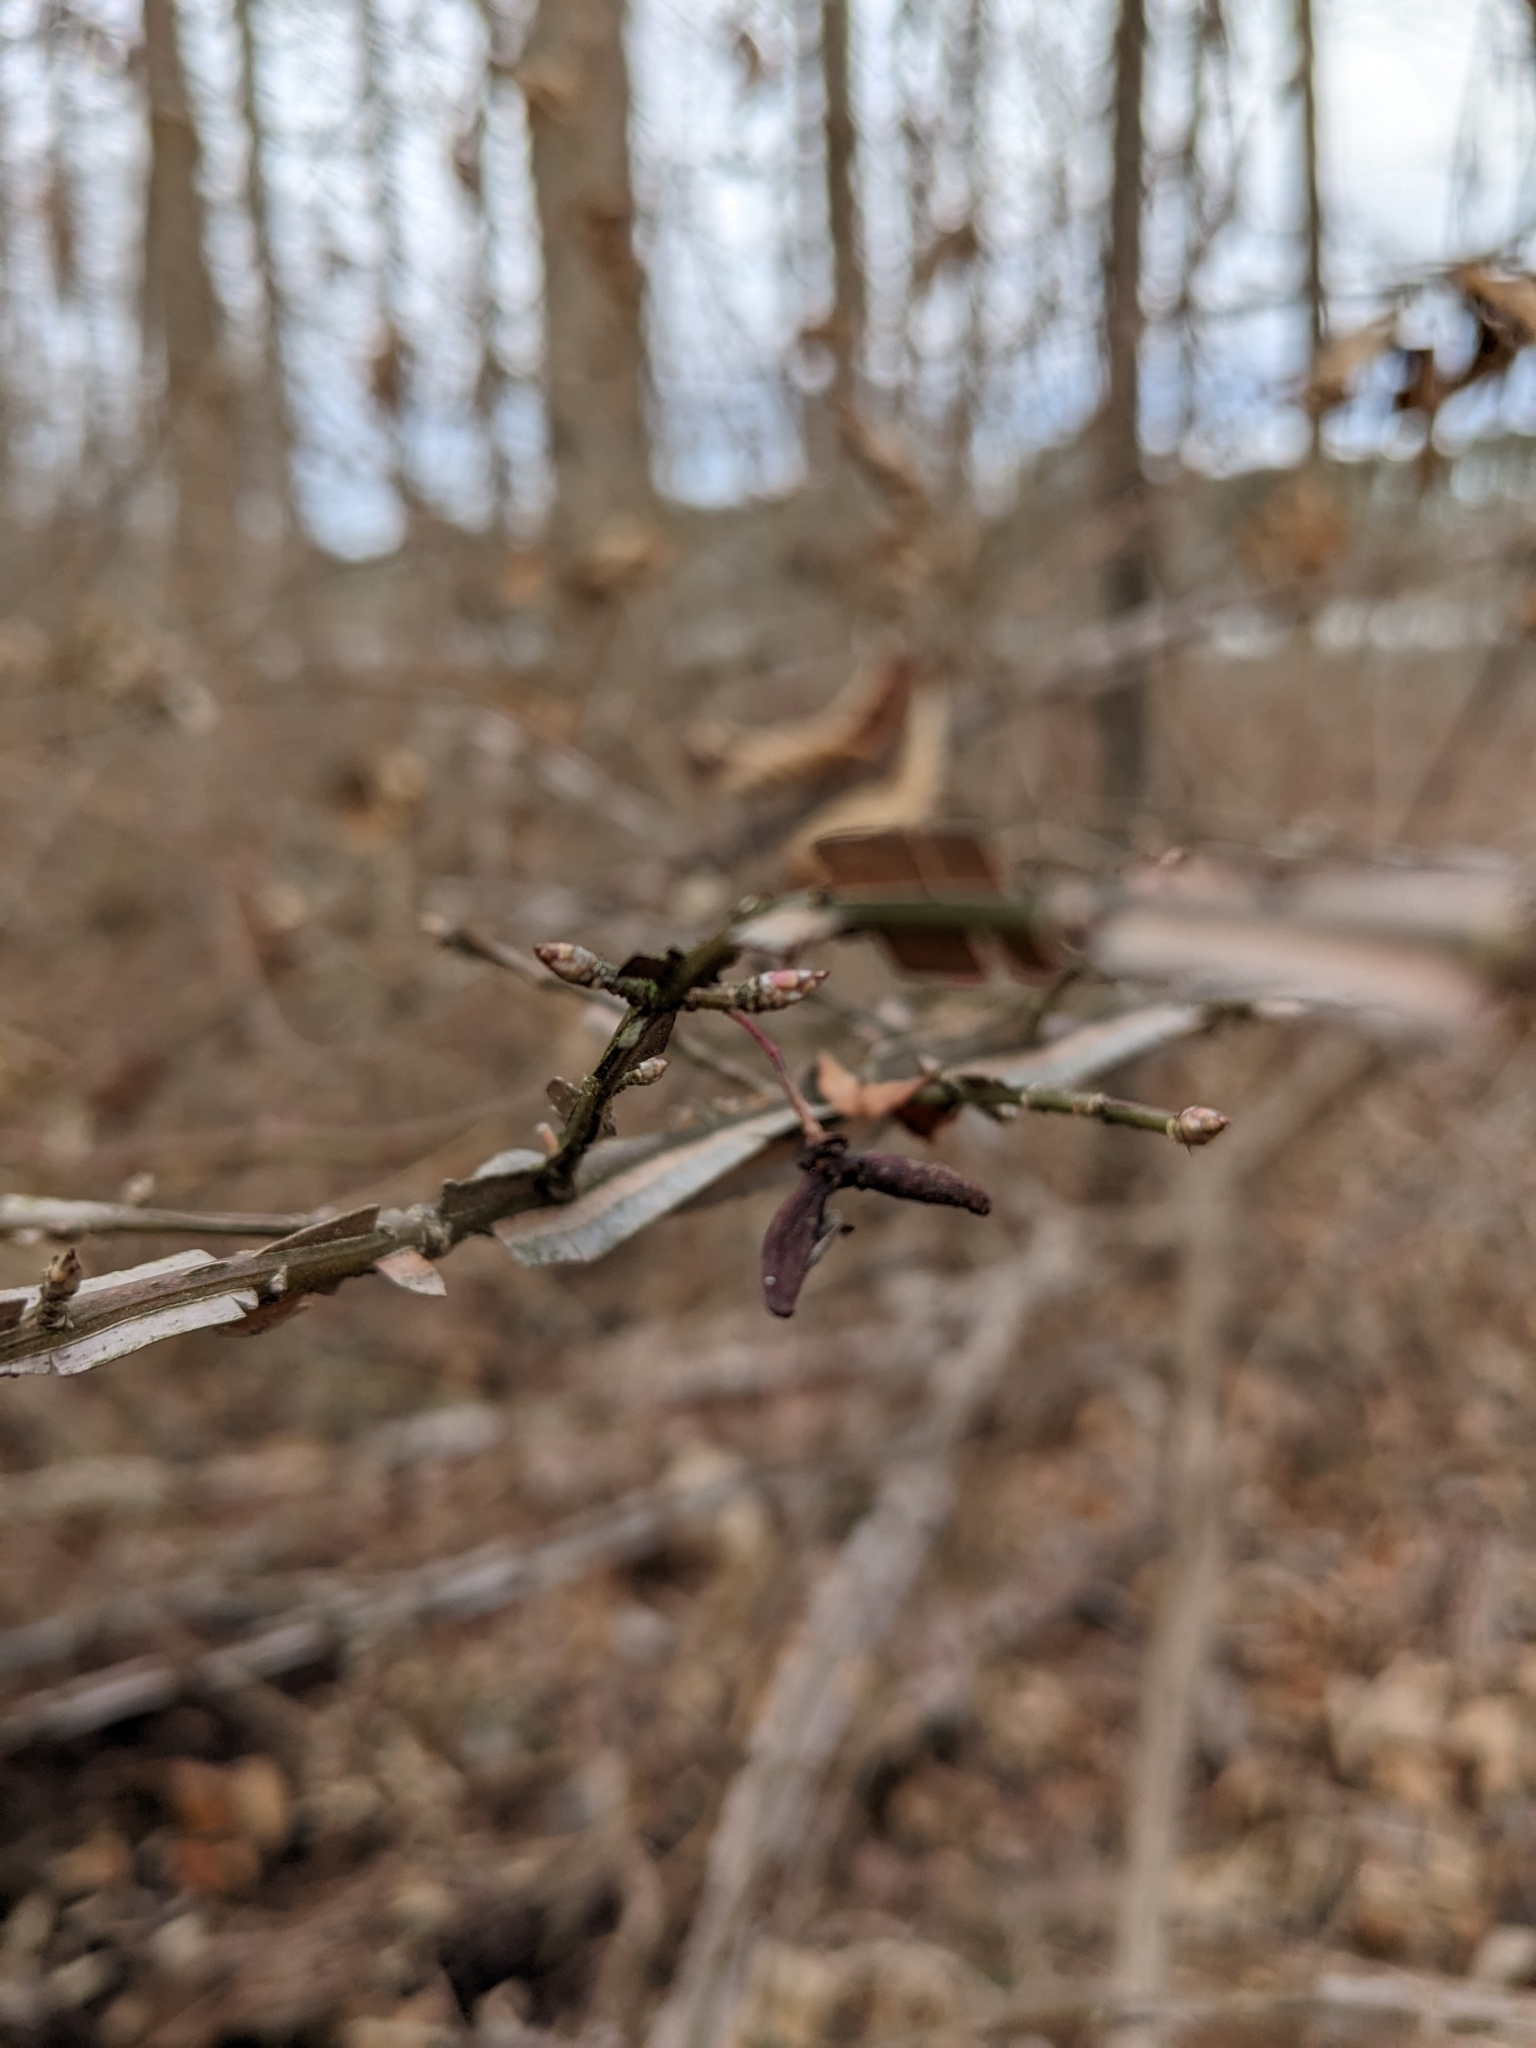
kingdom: Plantae
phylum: Tracheophyta
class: Magnoliopsida
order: Celastrales
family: Celastraceae
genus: Euonymus
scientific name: Euonymus alatus
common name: Winged euonymus
